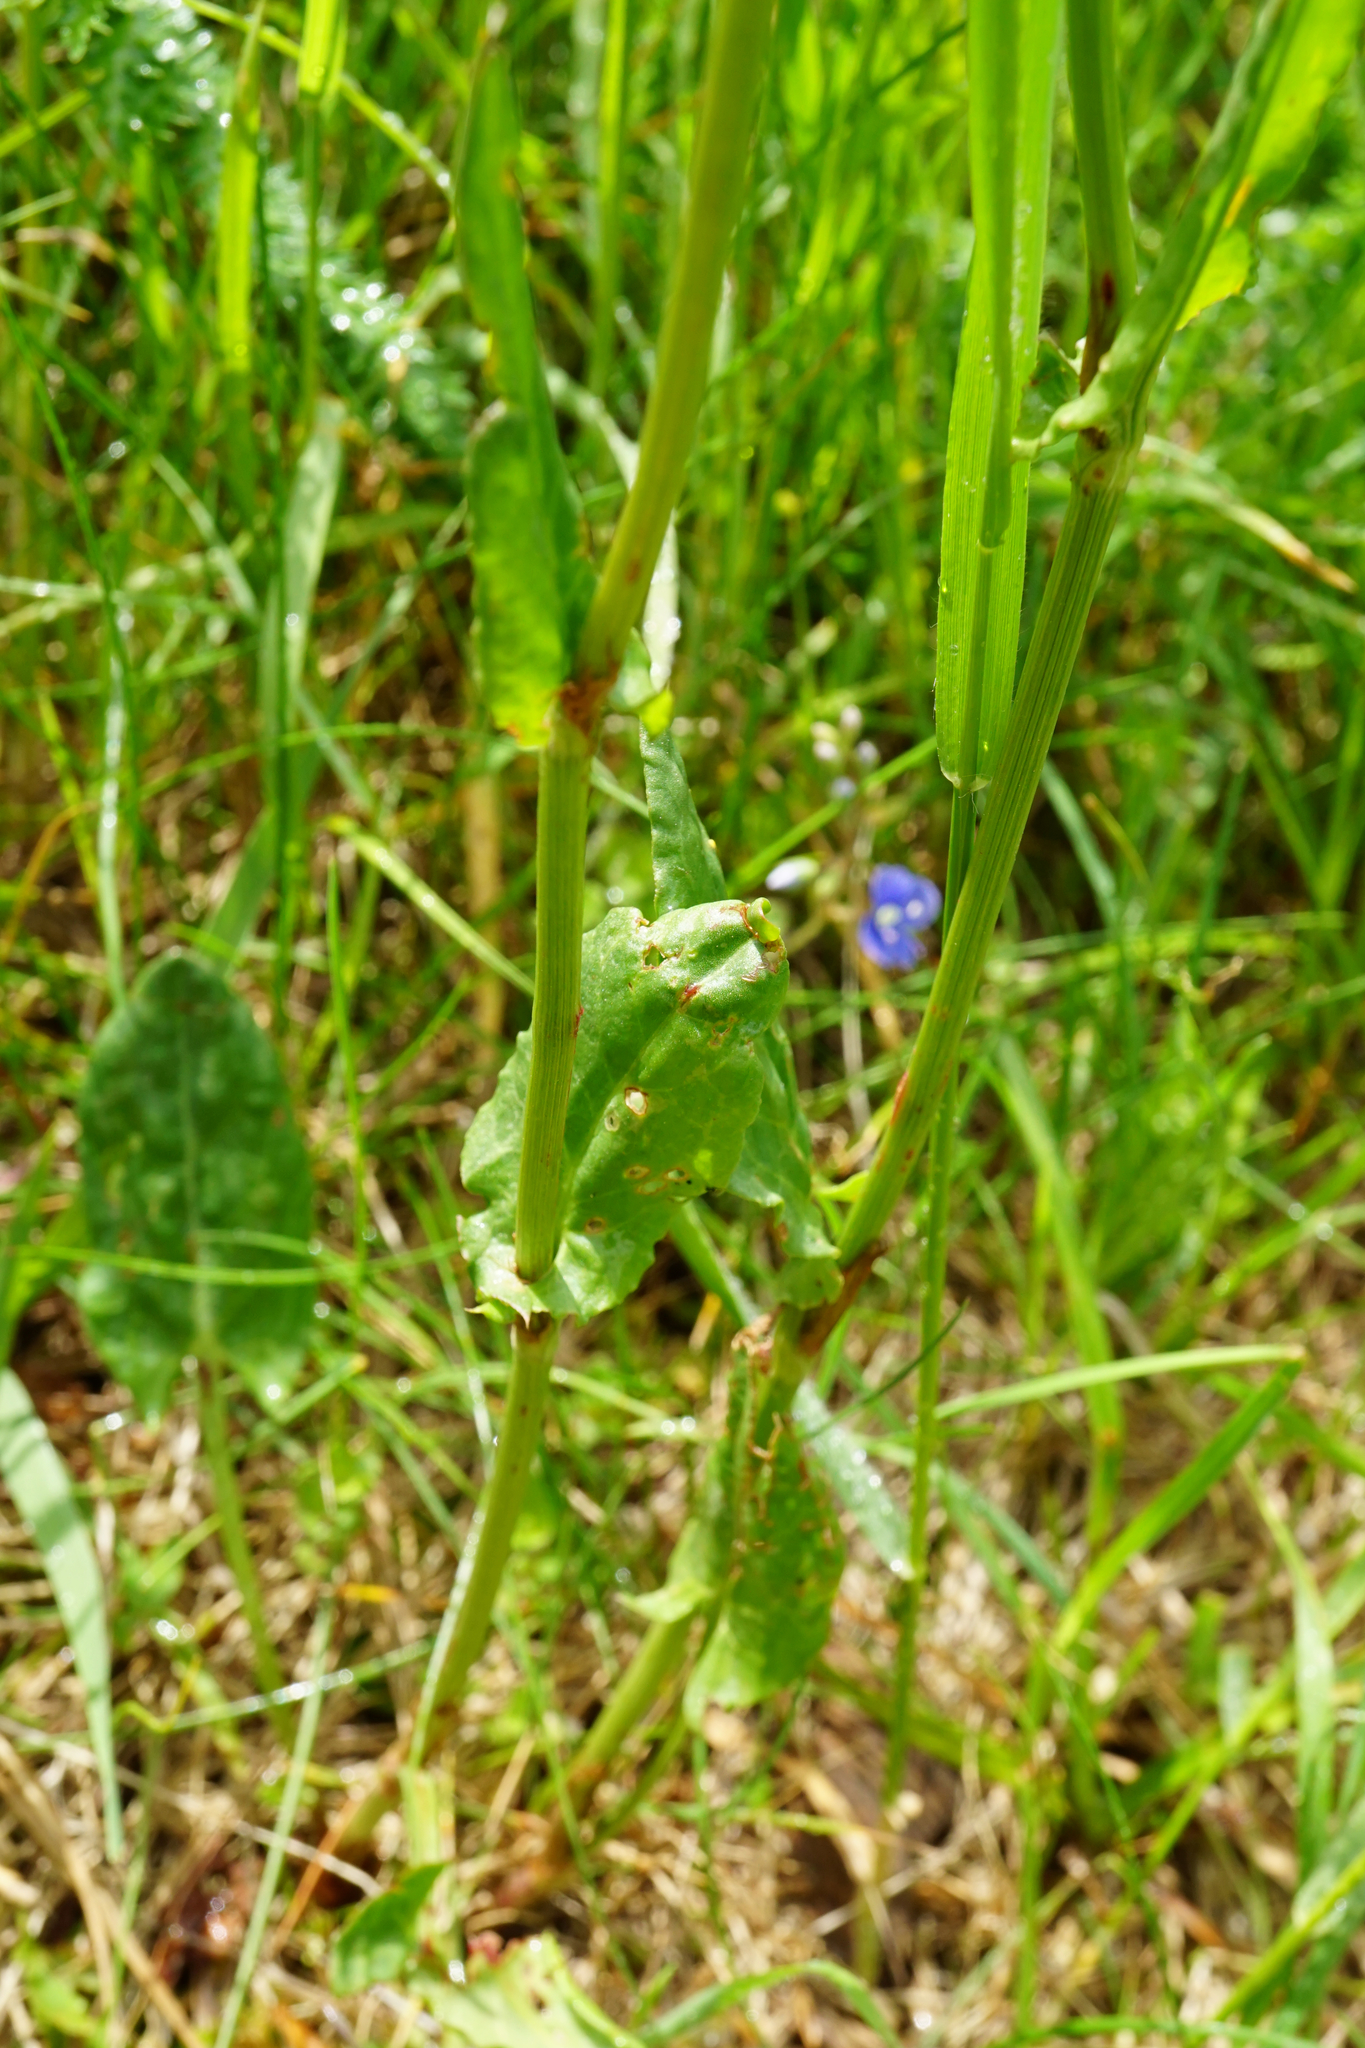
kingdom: Plantae
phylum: Tracheophyta
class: Magnoliopsida
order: Caryophyllales
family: Polygonaceae
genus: Rumex
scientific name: Rumex acetosa
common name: Garden sorrel
